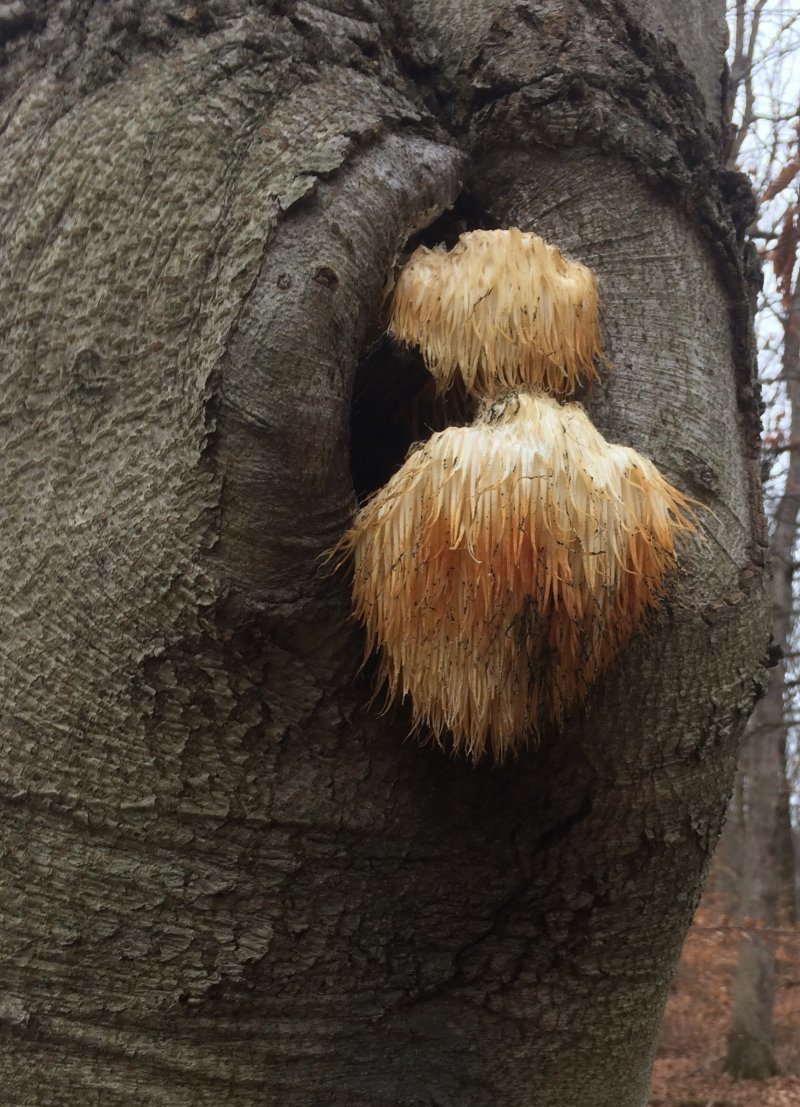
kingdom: Fungi
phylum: Basidiomycota
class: Agaricomycetes
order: Russulales
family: Hericiaceae
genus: Hericium
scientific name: Hericium erinaceus
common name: Bearded tooth
